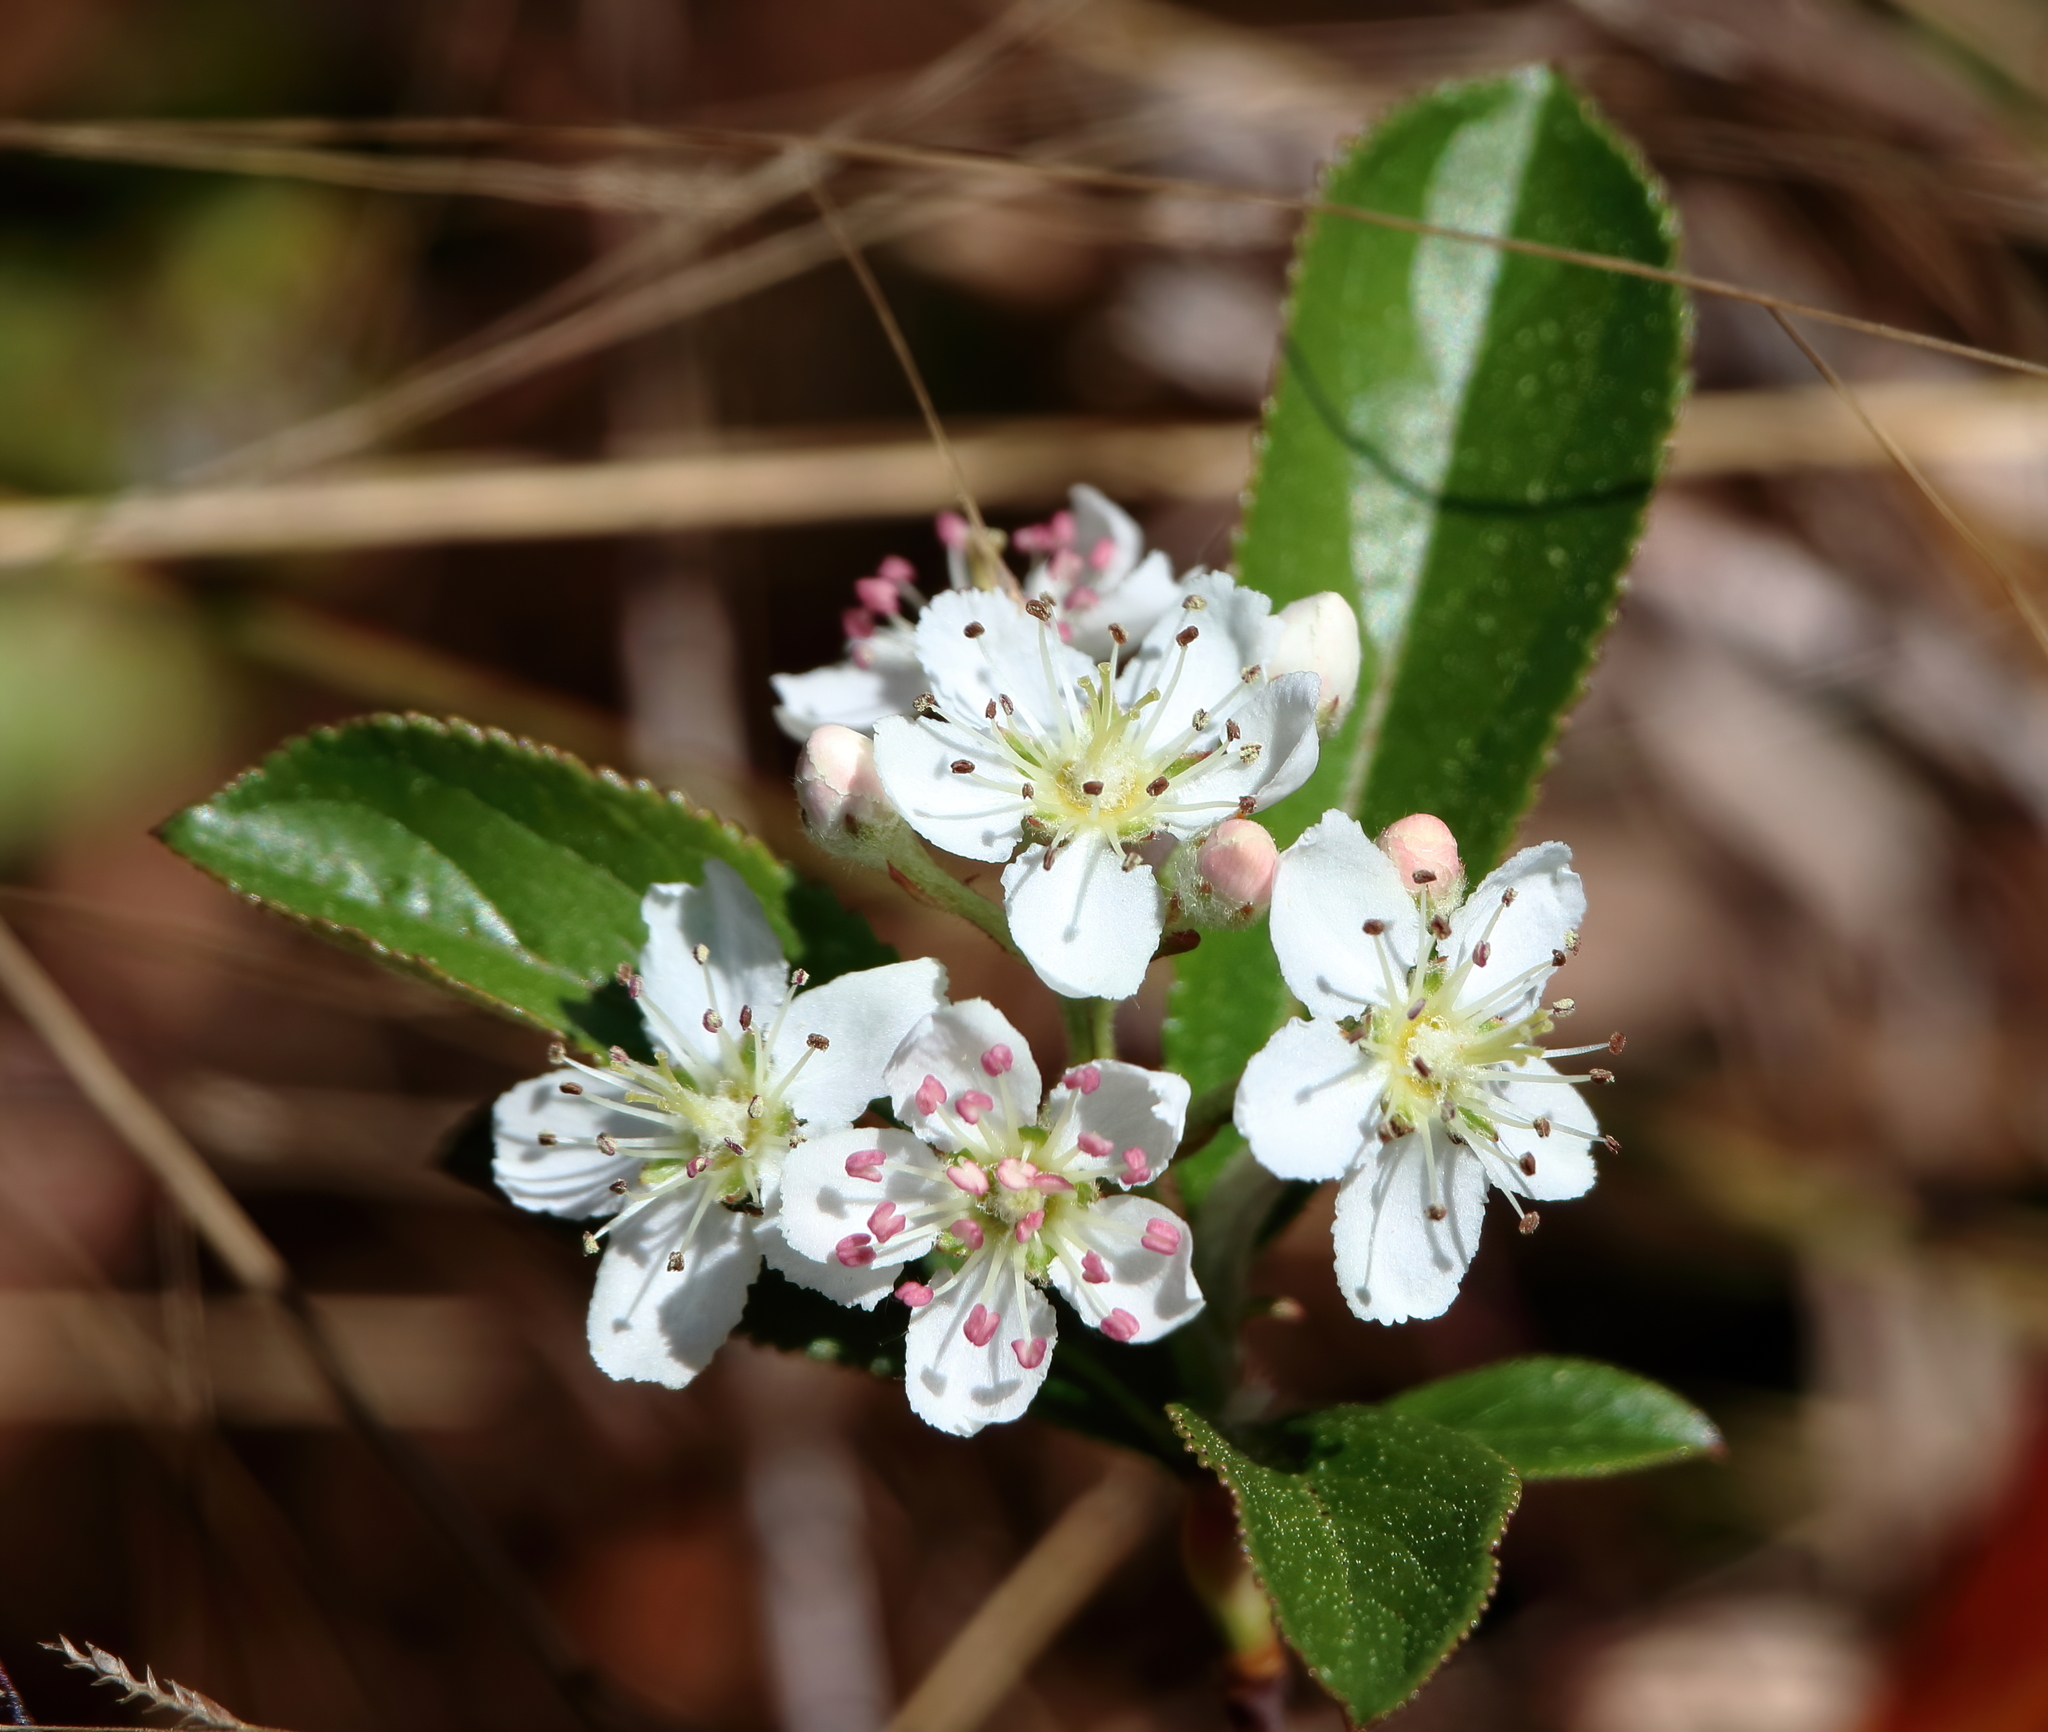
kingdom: Plantae
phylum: Tracheophyta
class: Magnoliopsida
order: Rosales
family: Rosaceae
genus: Aronia
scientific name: Aronia arbutifolia
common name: Red chokeberry
